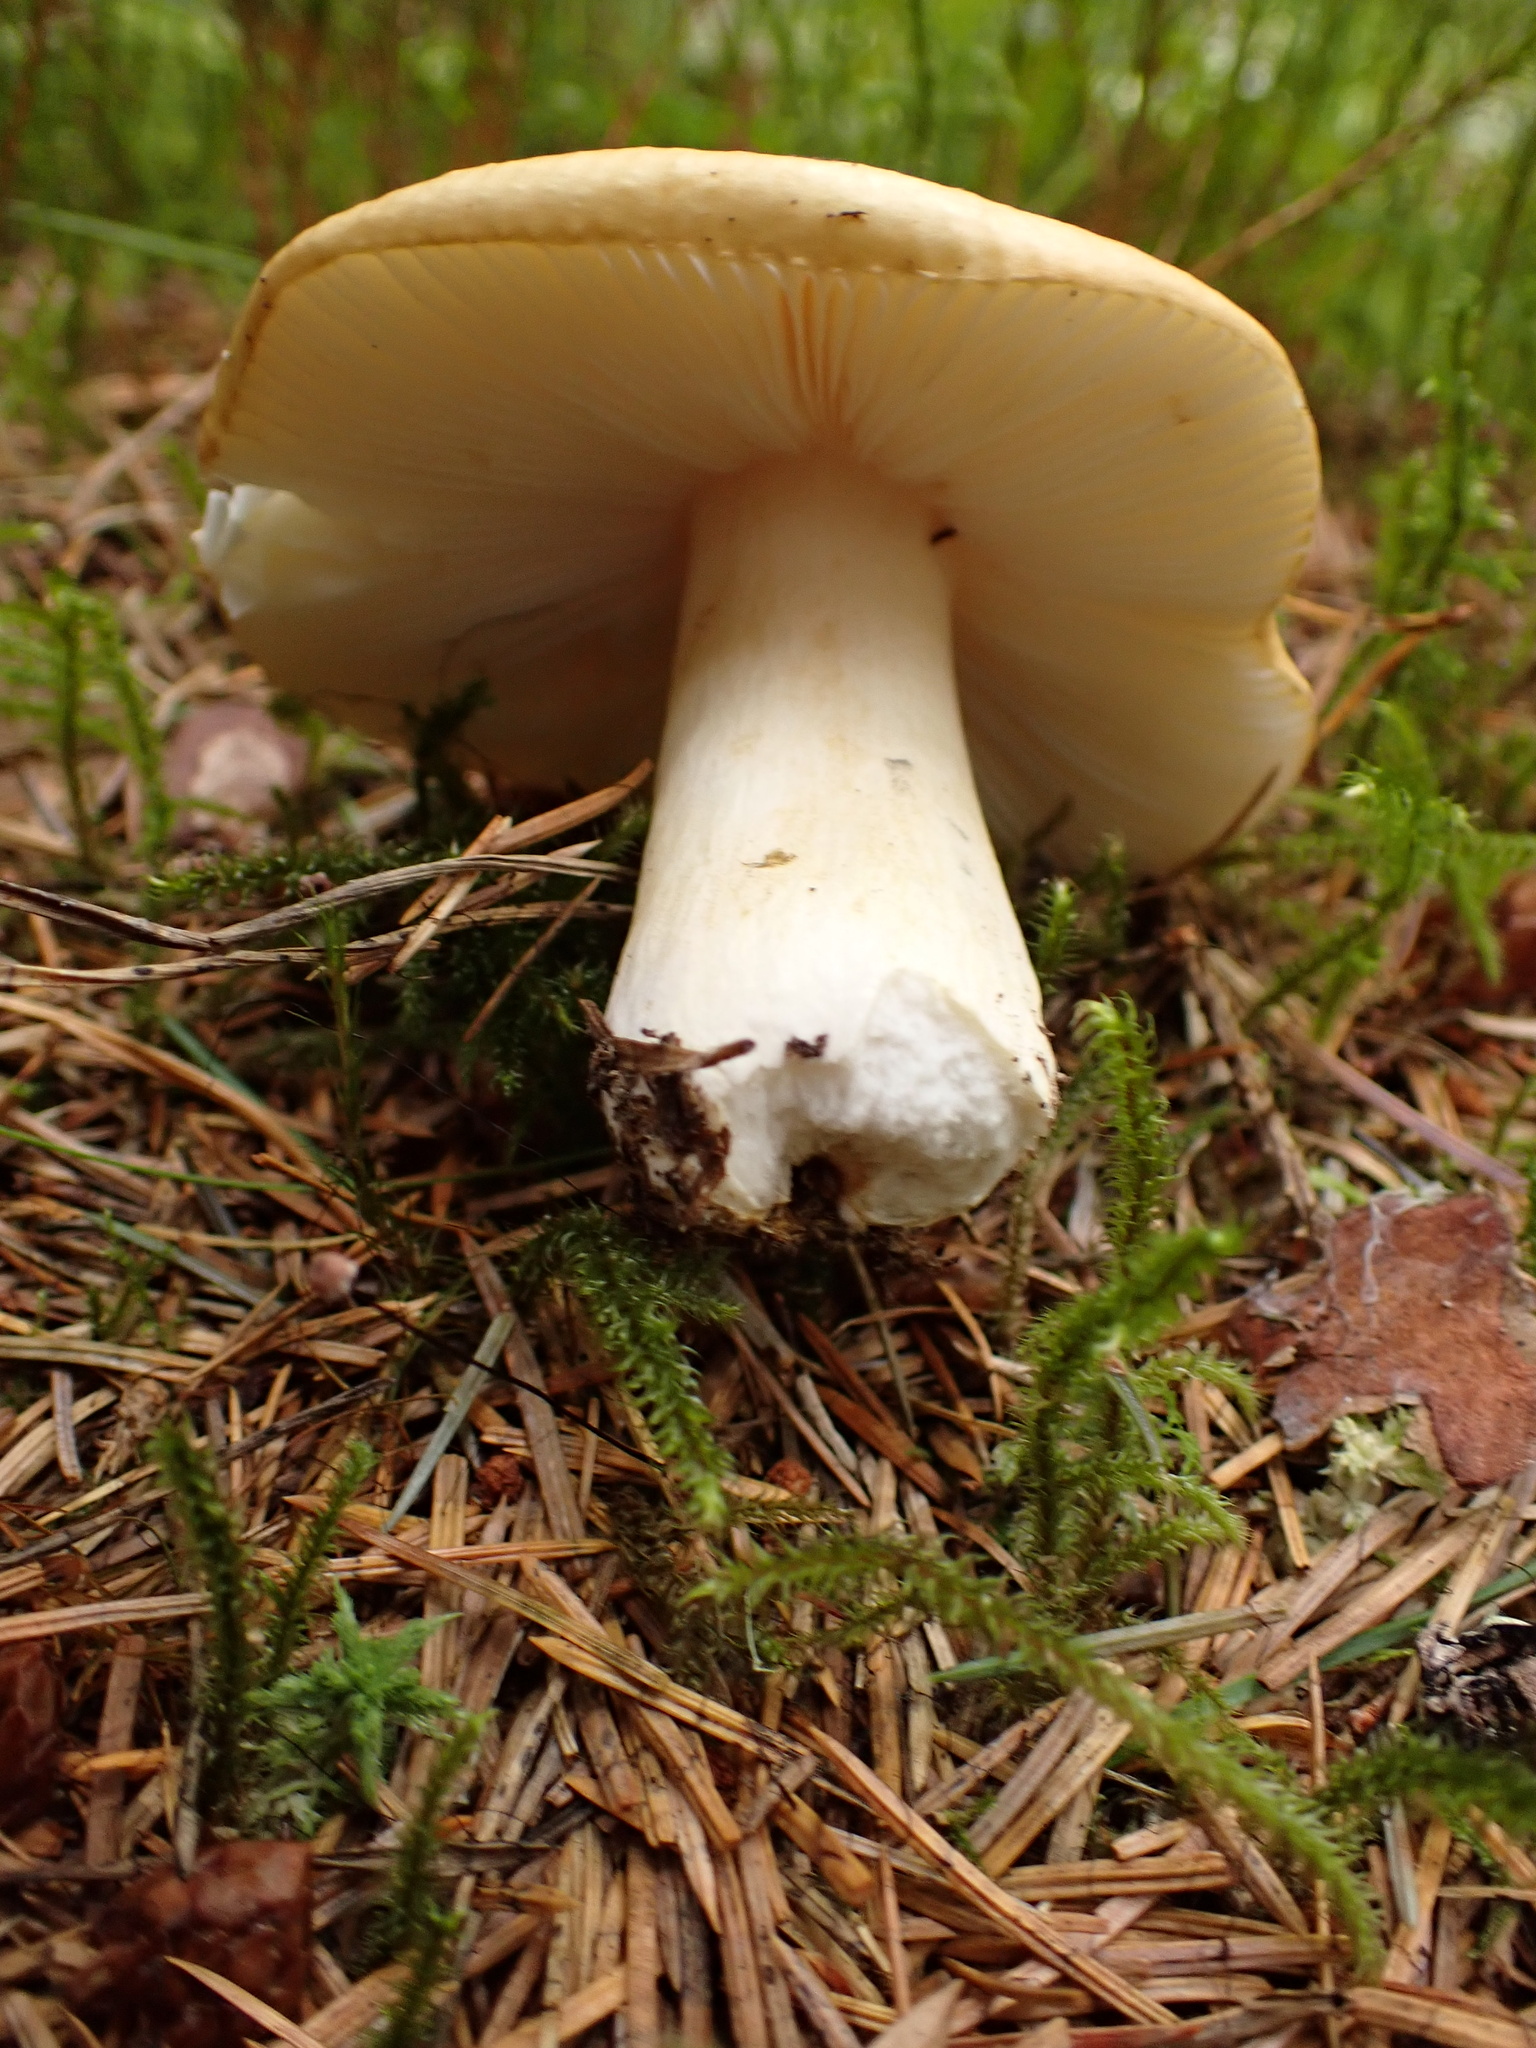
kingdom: Fungi
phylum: Basidiomycota
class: Agaricomycetes
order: Russulales
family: Russulaceae
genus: Russula
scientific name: Russula ochroleuca
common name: Common yellow russula
